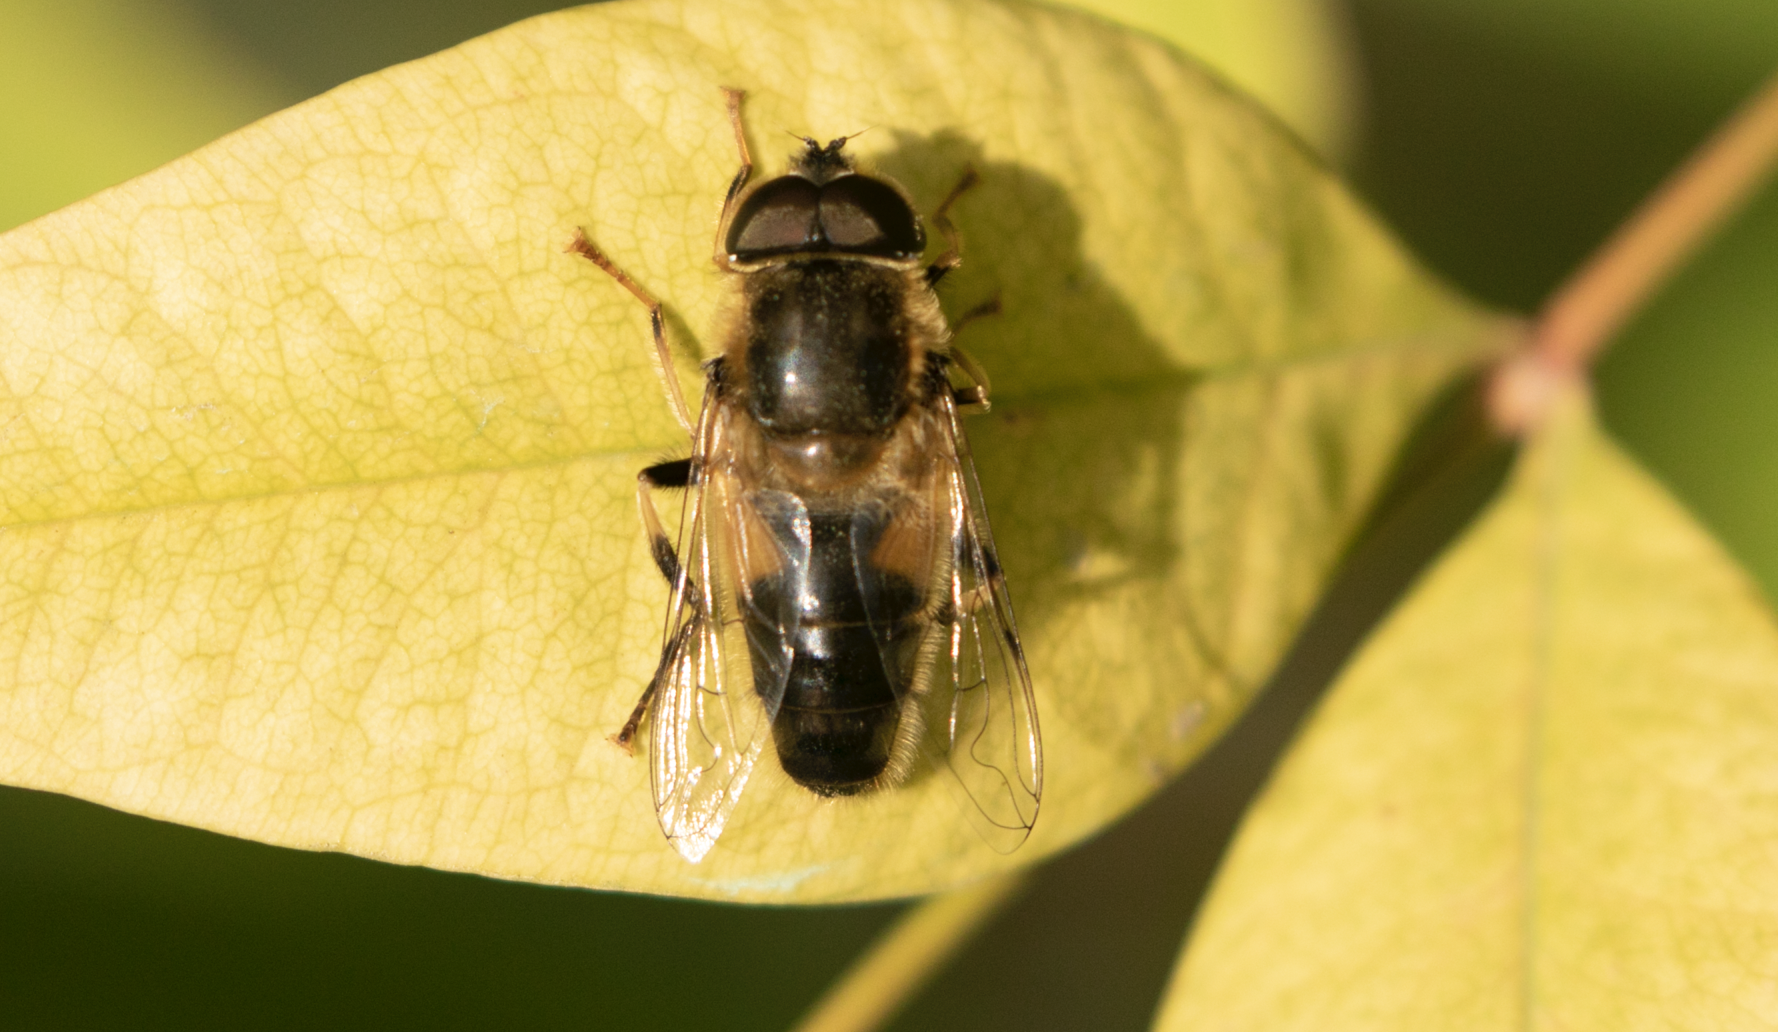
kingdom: Animalia
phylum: Arthropoda
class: Insecta
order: Diptera
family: Syrphidae
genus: Eristalis
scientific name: Eristalis pertinax
